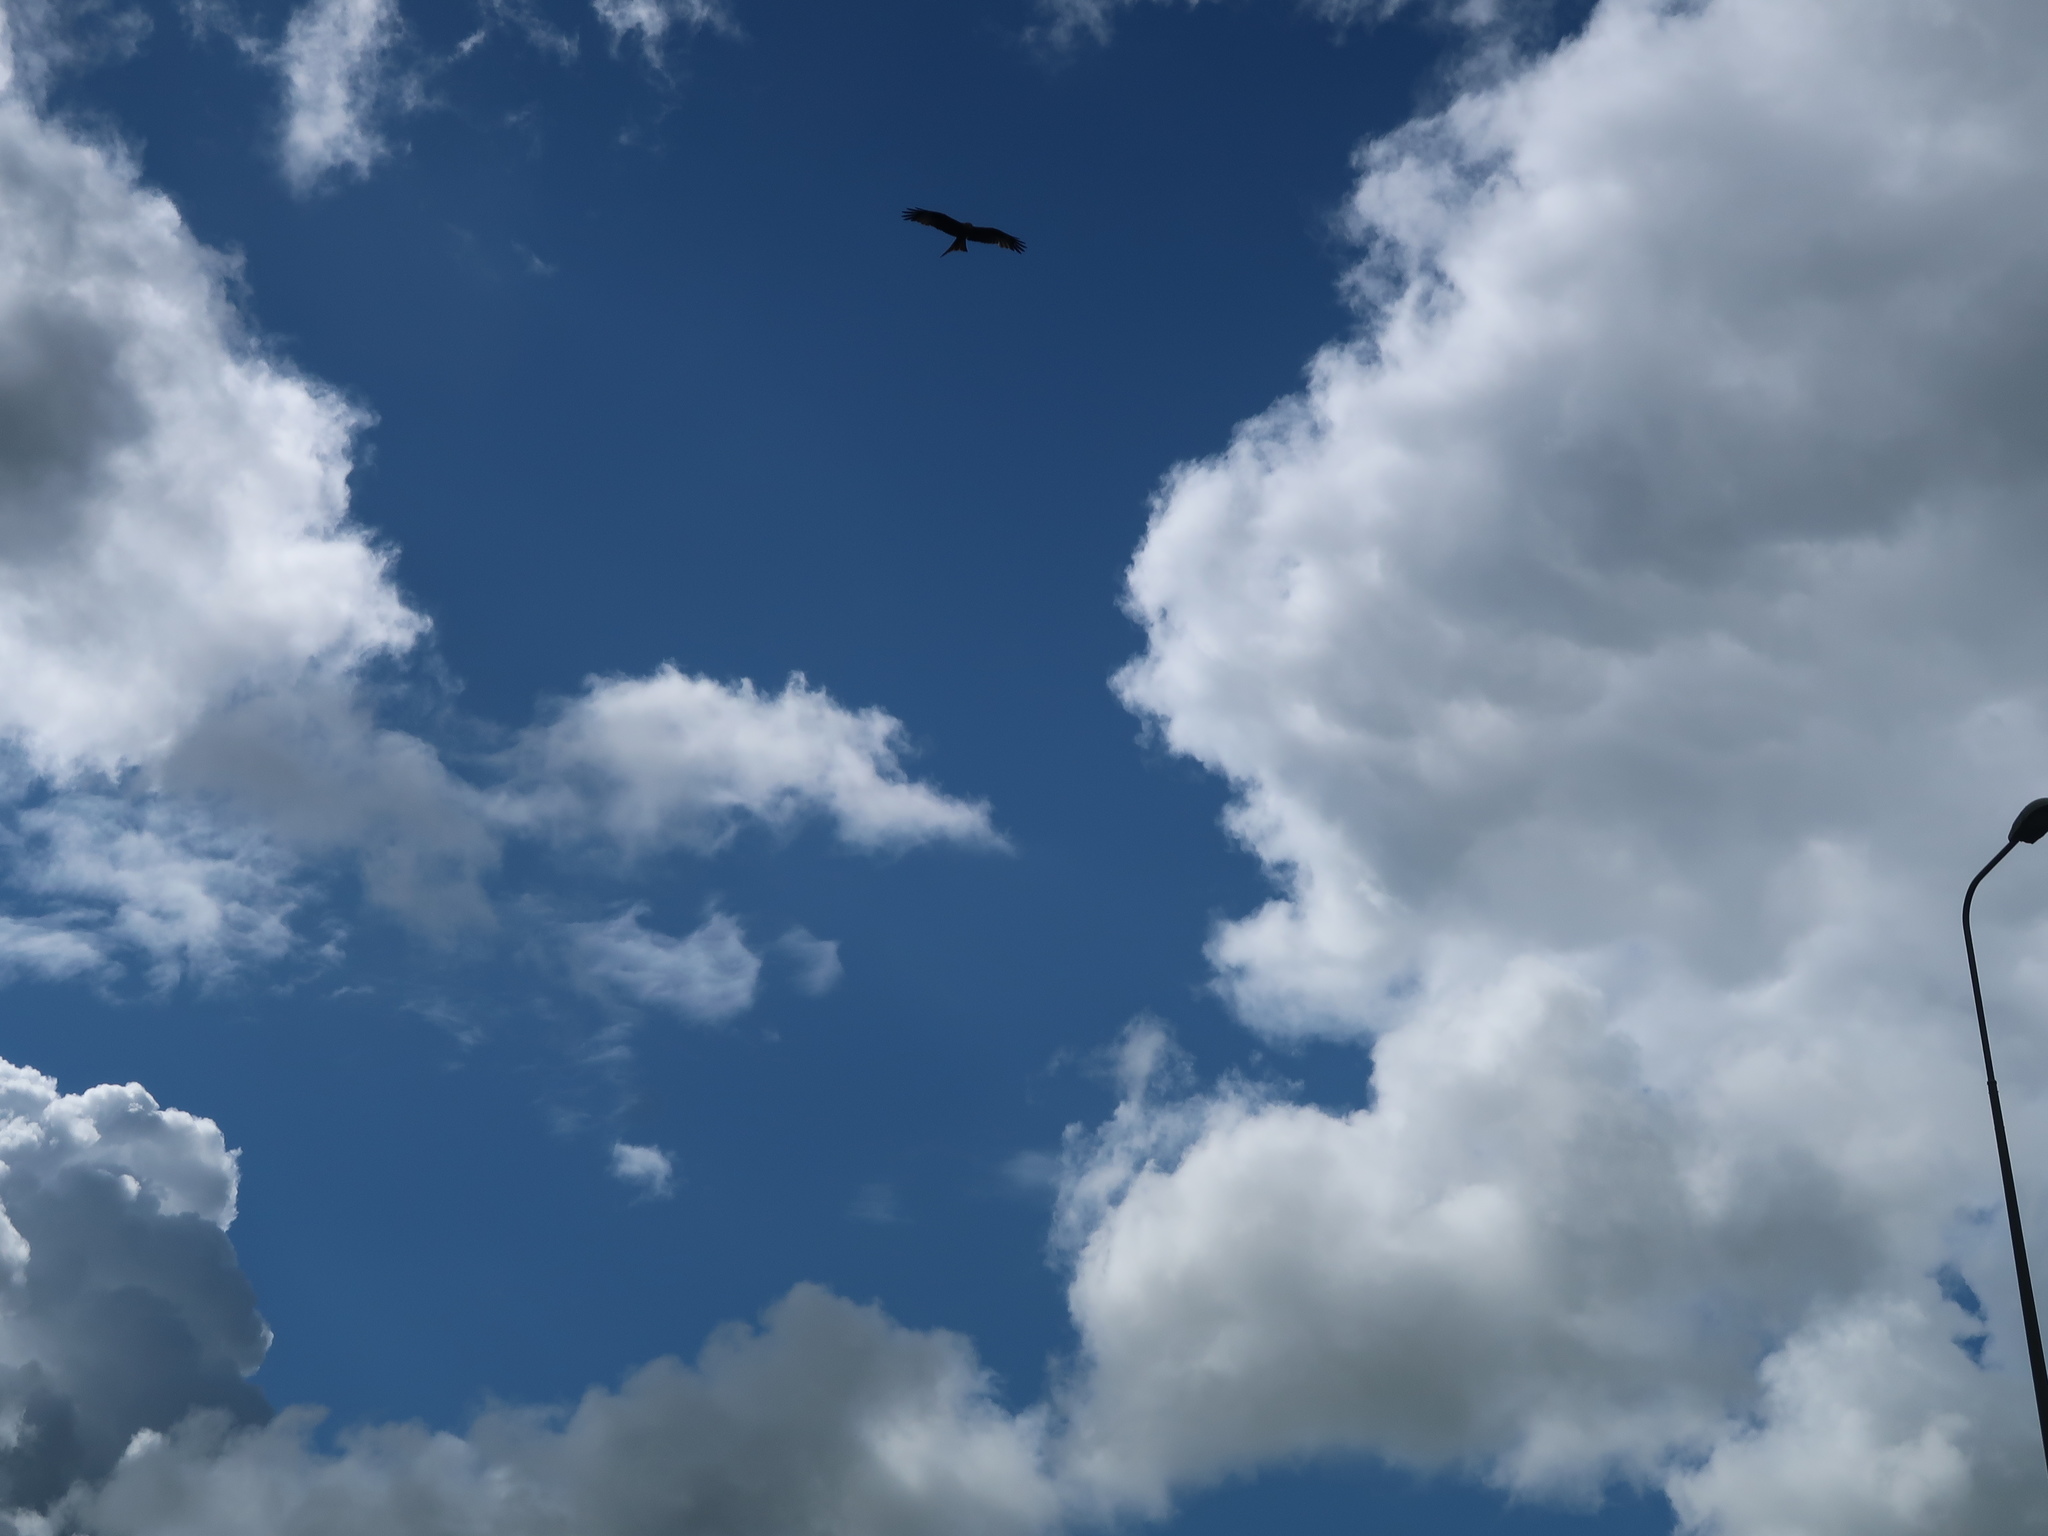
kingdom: Animalia
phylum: Chordata
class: Aves
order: Accipitriformes
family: Accipitridae
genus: Milvus
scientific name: Milvus milvus
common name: Red kite
